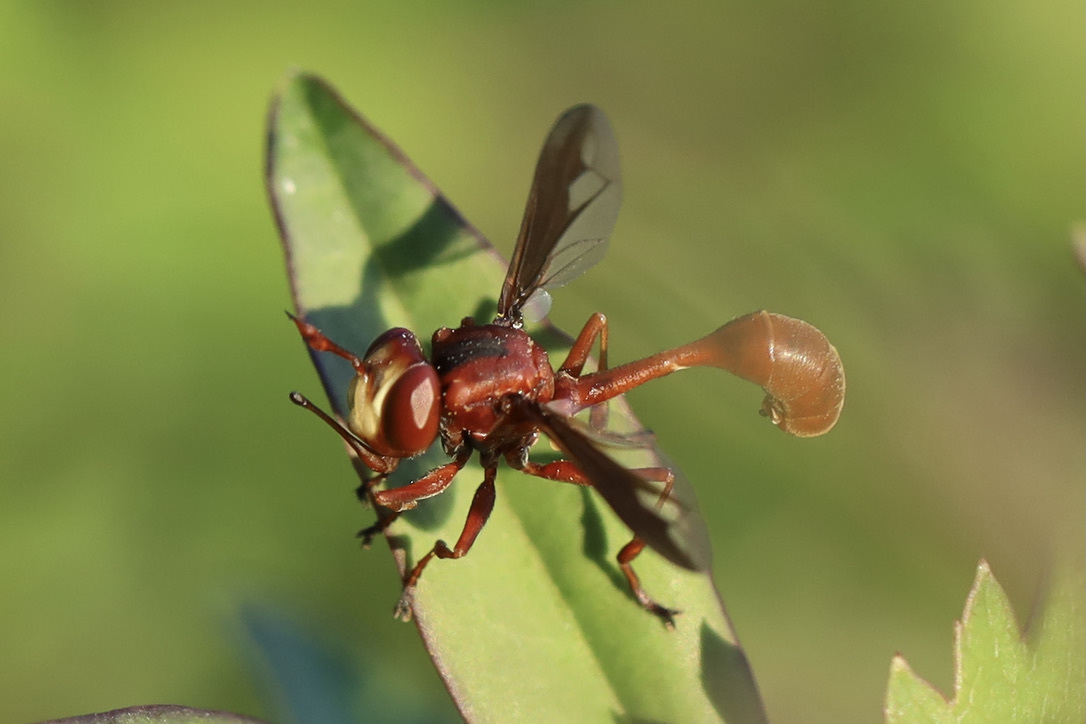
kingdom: Animalia
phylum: Arthropoda
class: Insecta
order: Diptera
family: Conopidae
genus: Physocephala
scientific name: Physocephala burgessi
